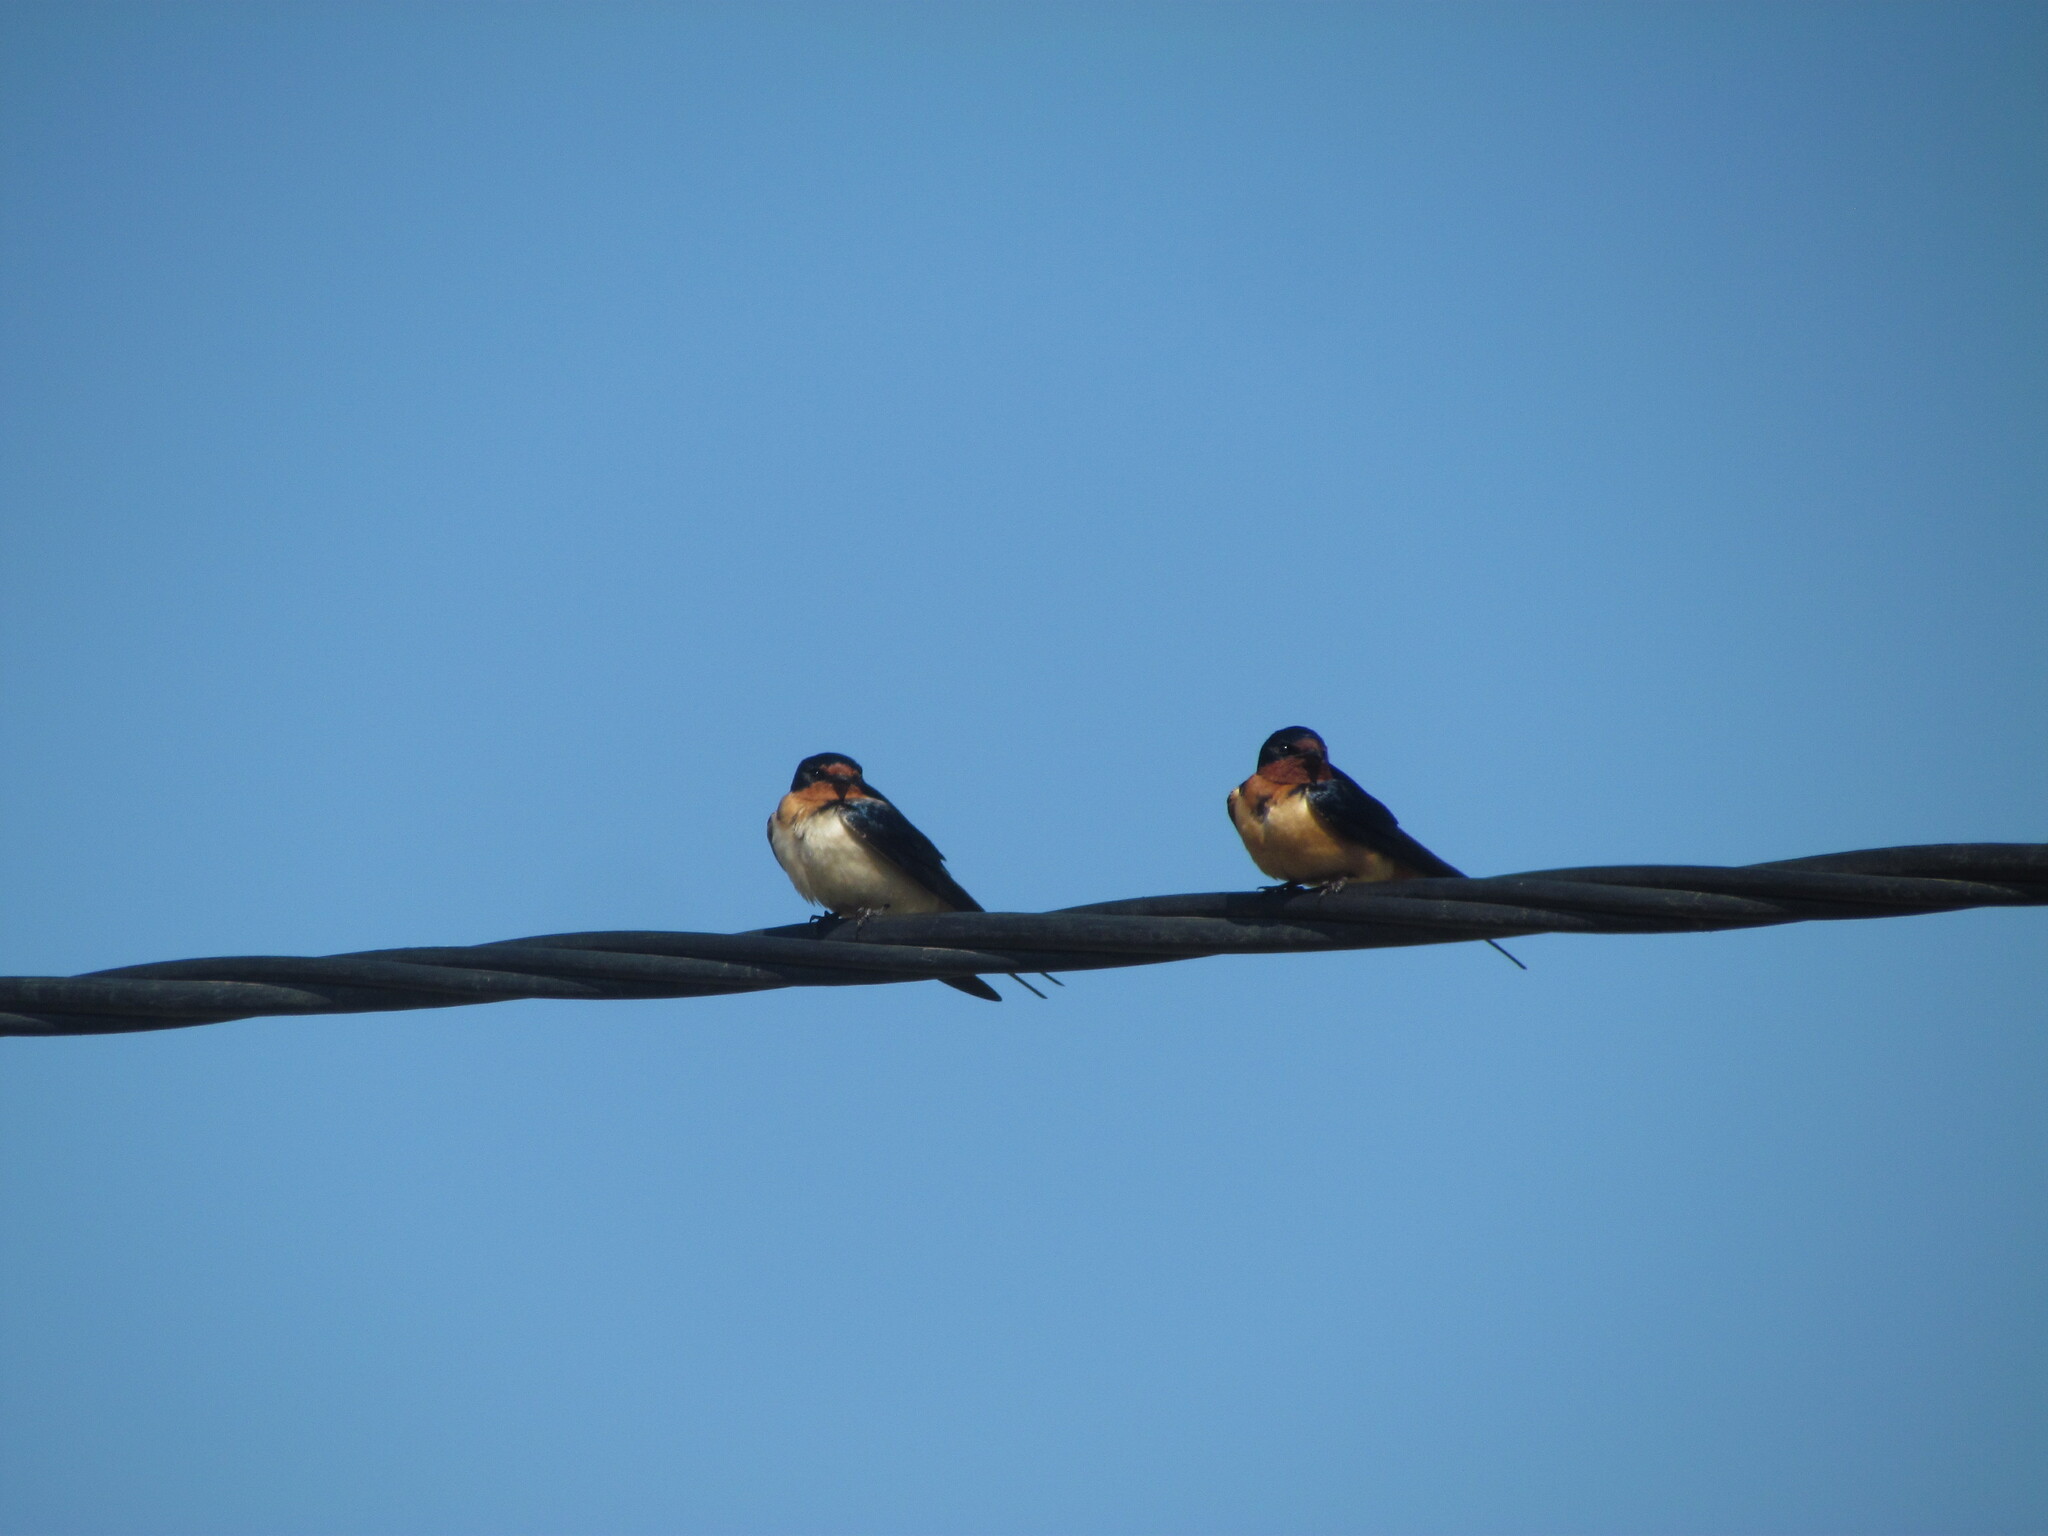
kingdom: Animalia
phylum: Chordata
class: Aves
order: Passeriformes
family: Hirundinidae
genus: Hirundo
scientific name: Hirundo rustica
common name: Barn swallow
